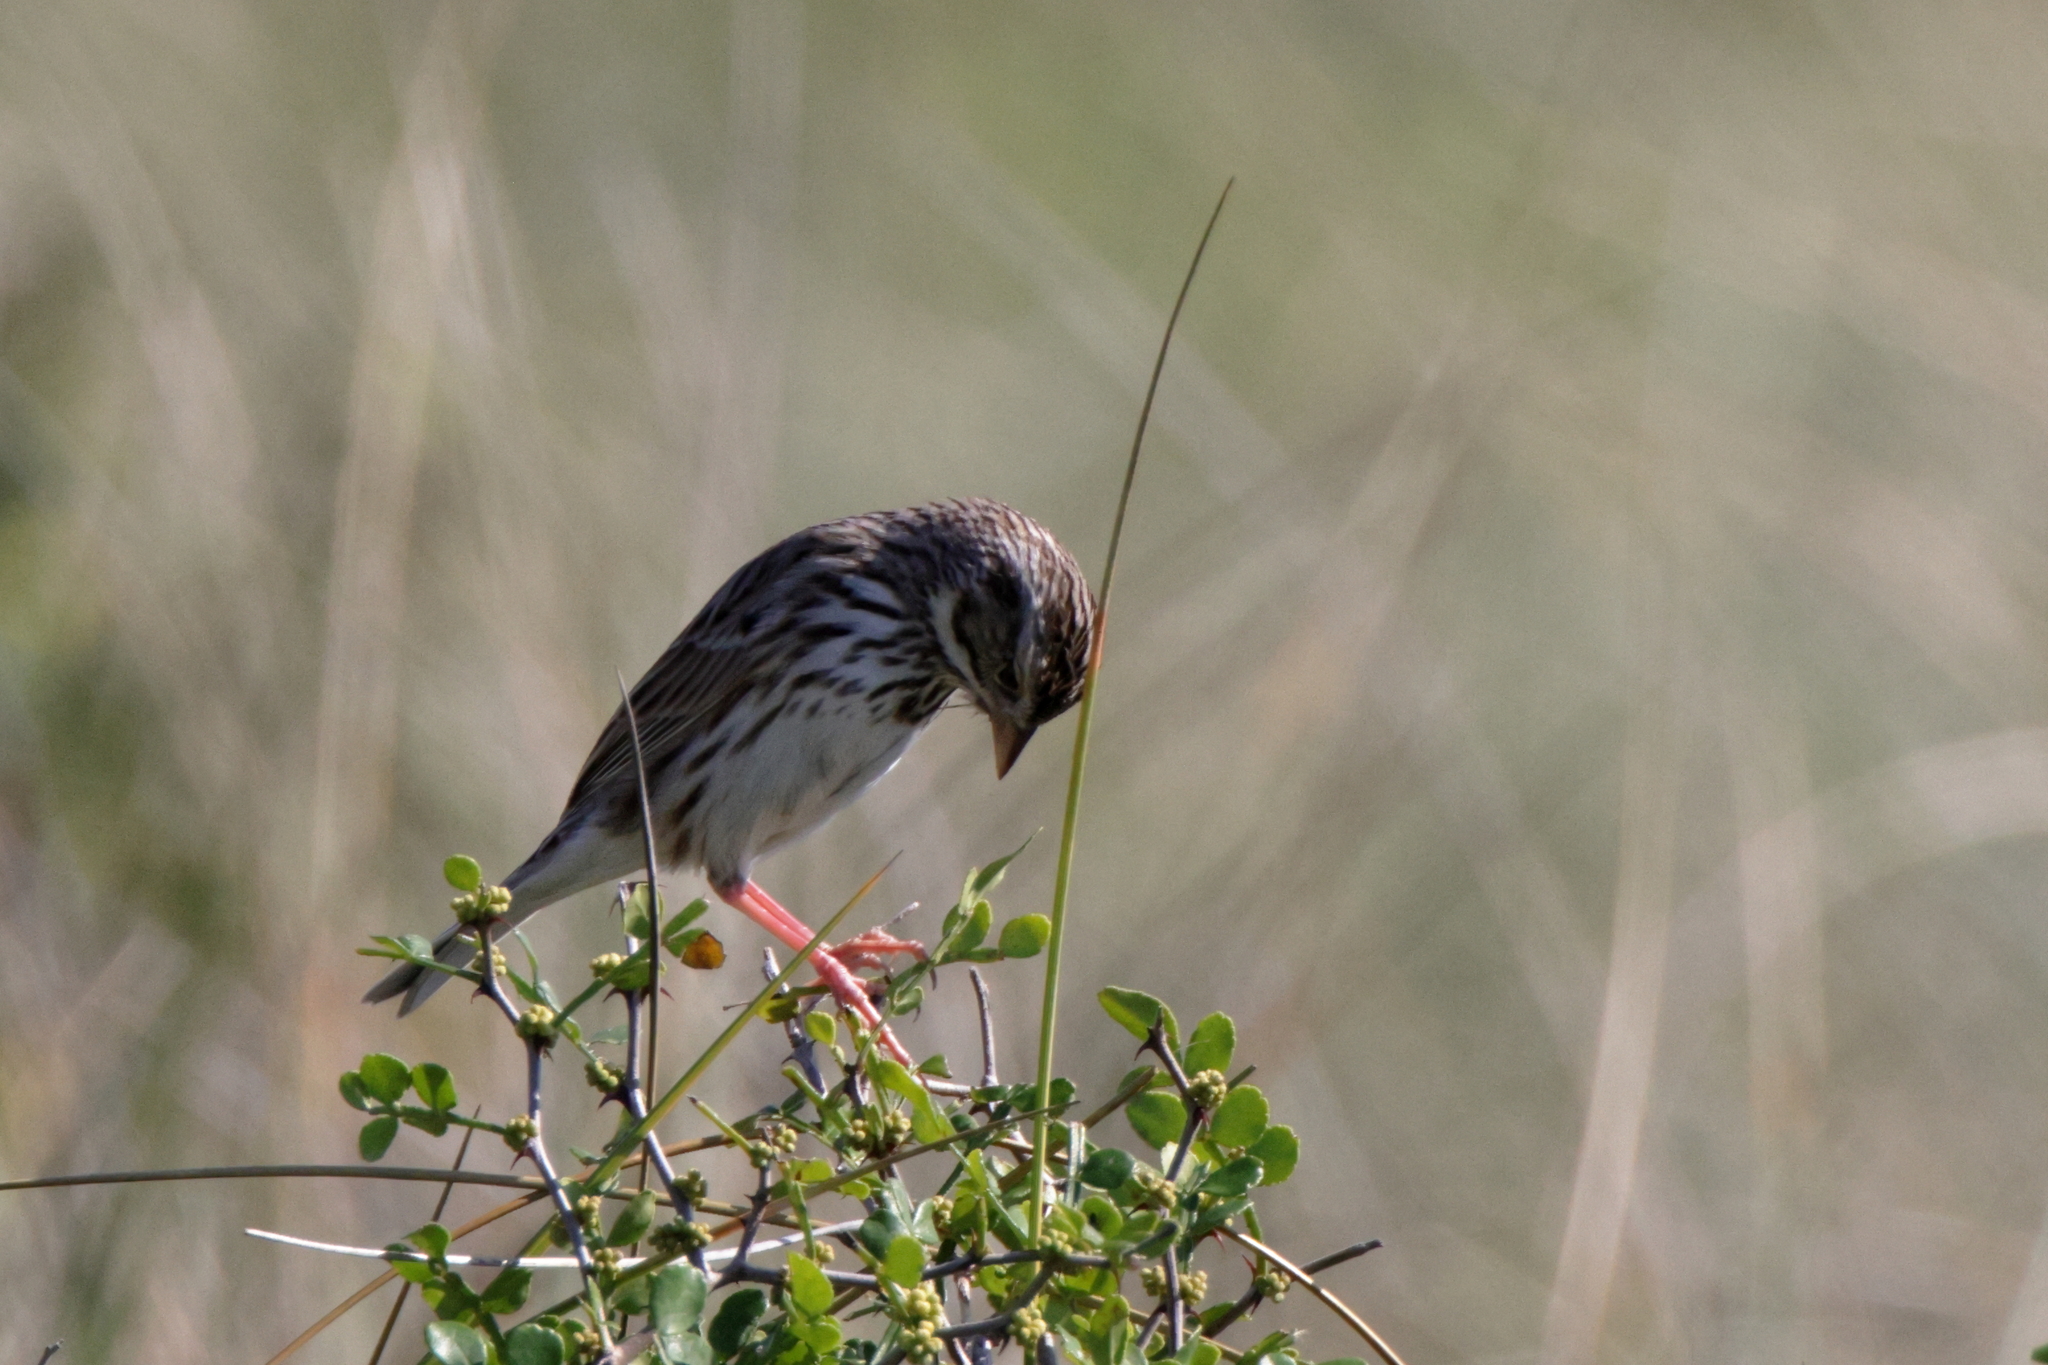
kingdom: Animalia
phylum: Chordata
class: Aves
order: Passeriformes
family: Passerellidae
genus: Passerculus
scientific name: Passerculus sandwichensis
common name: Savannah sparrow
